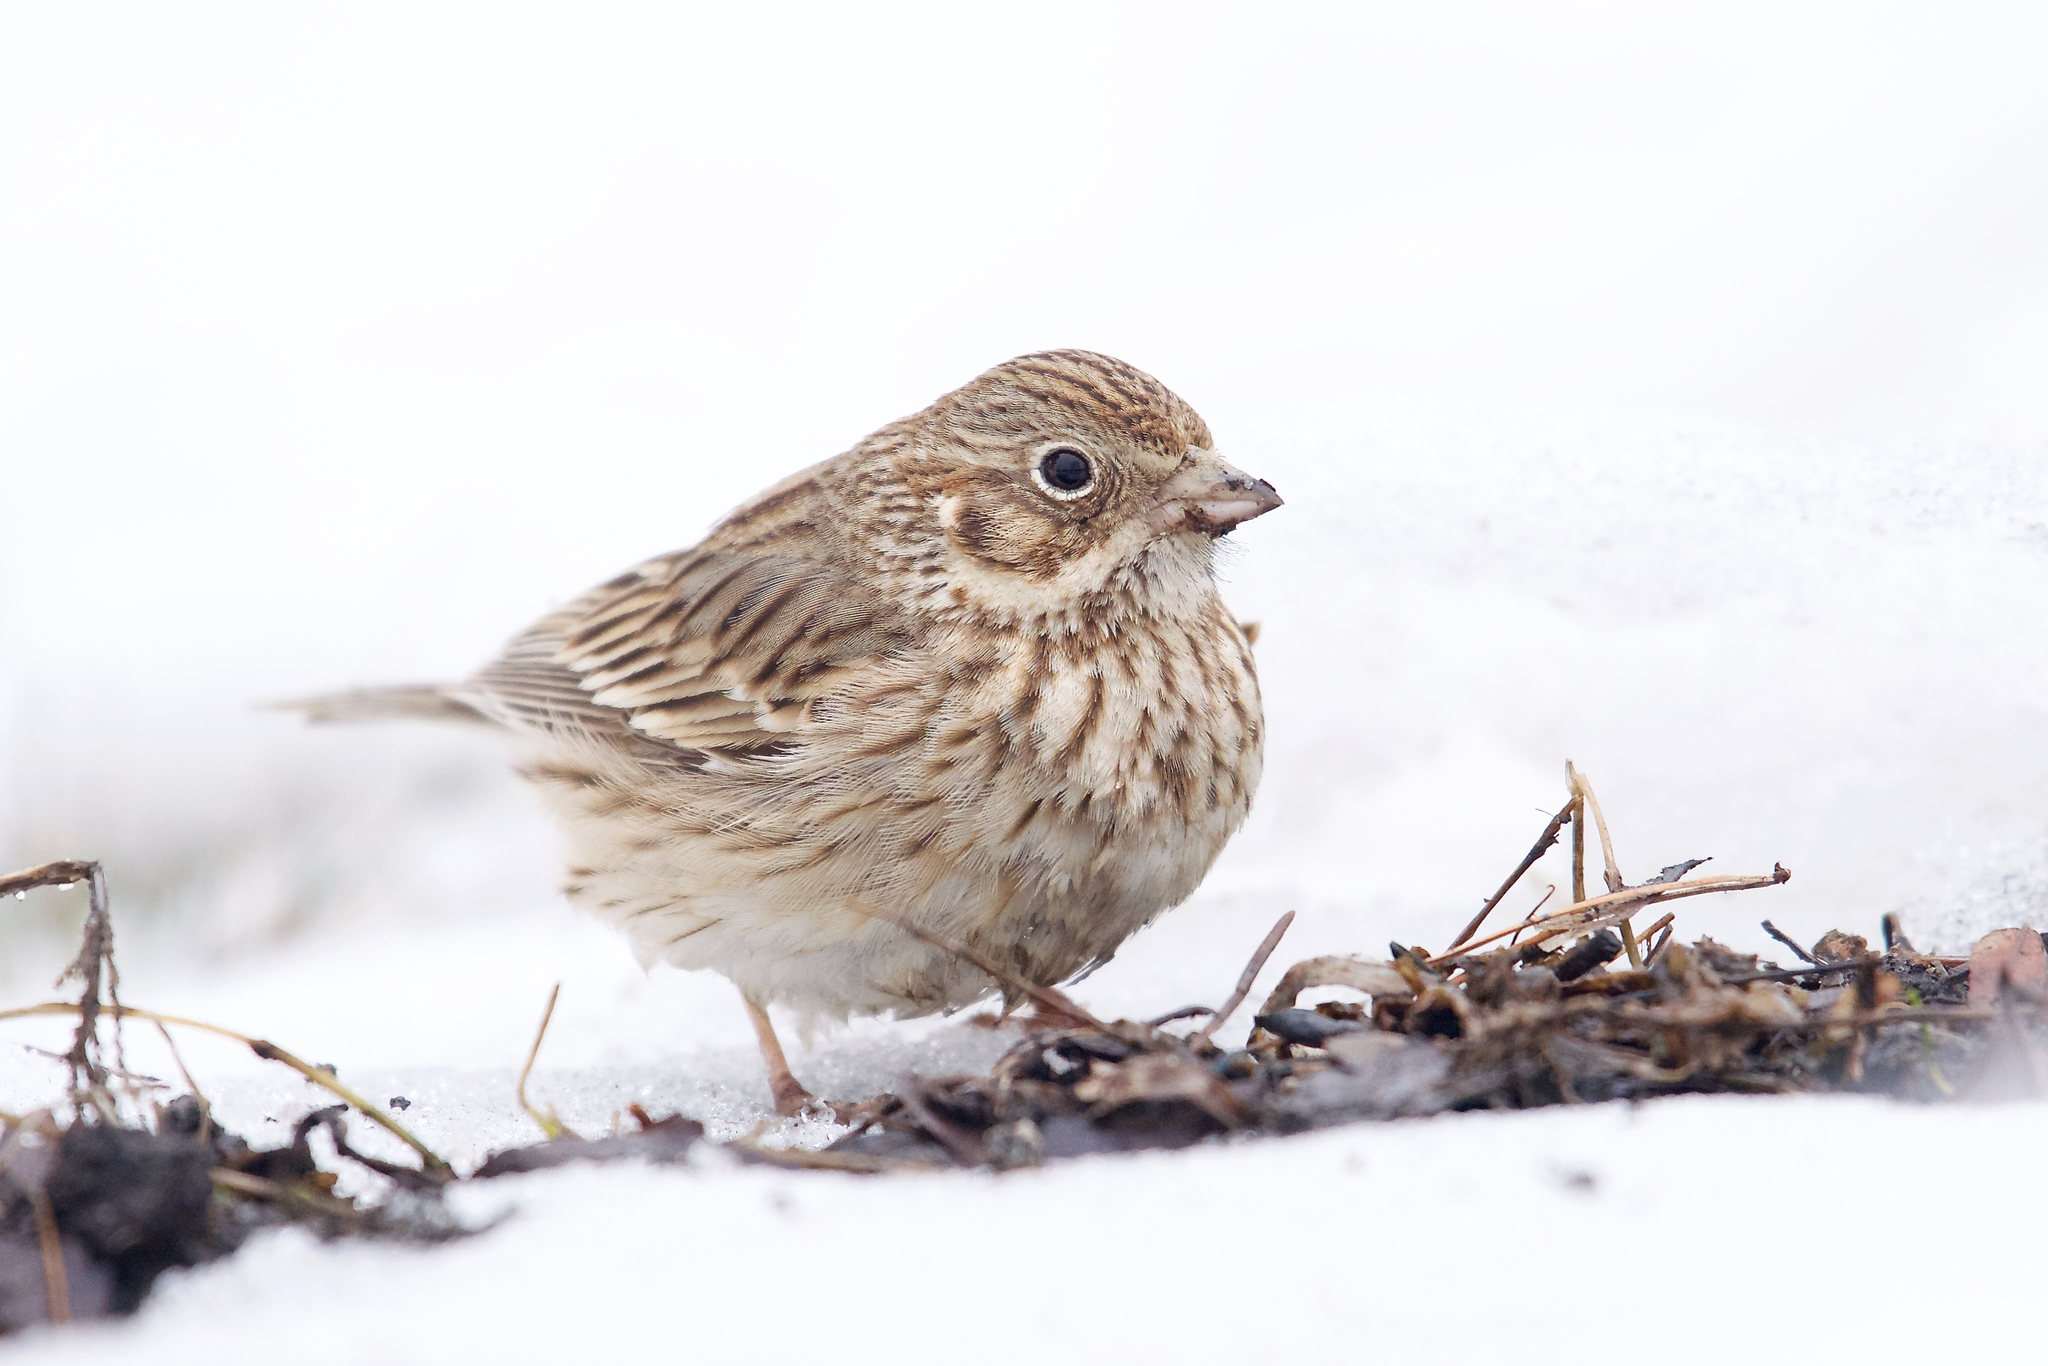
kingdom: Animalia
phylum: Chordata
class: Aves
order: Passeriformes
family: Passerellidae
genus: Pooecetes
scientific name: Pooecetes gramineus
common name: Vesper sparrow
